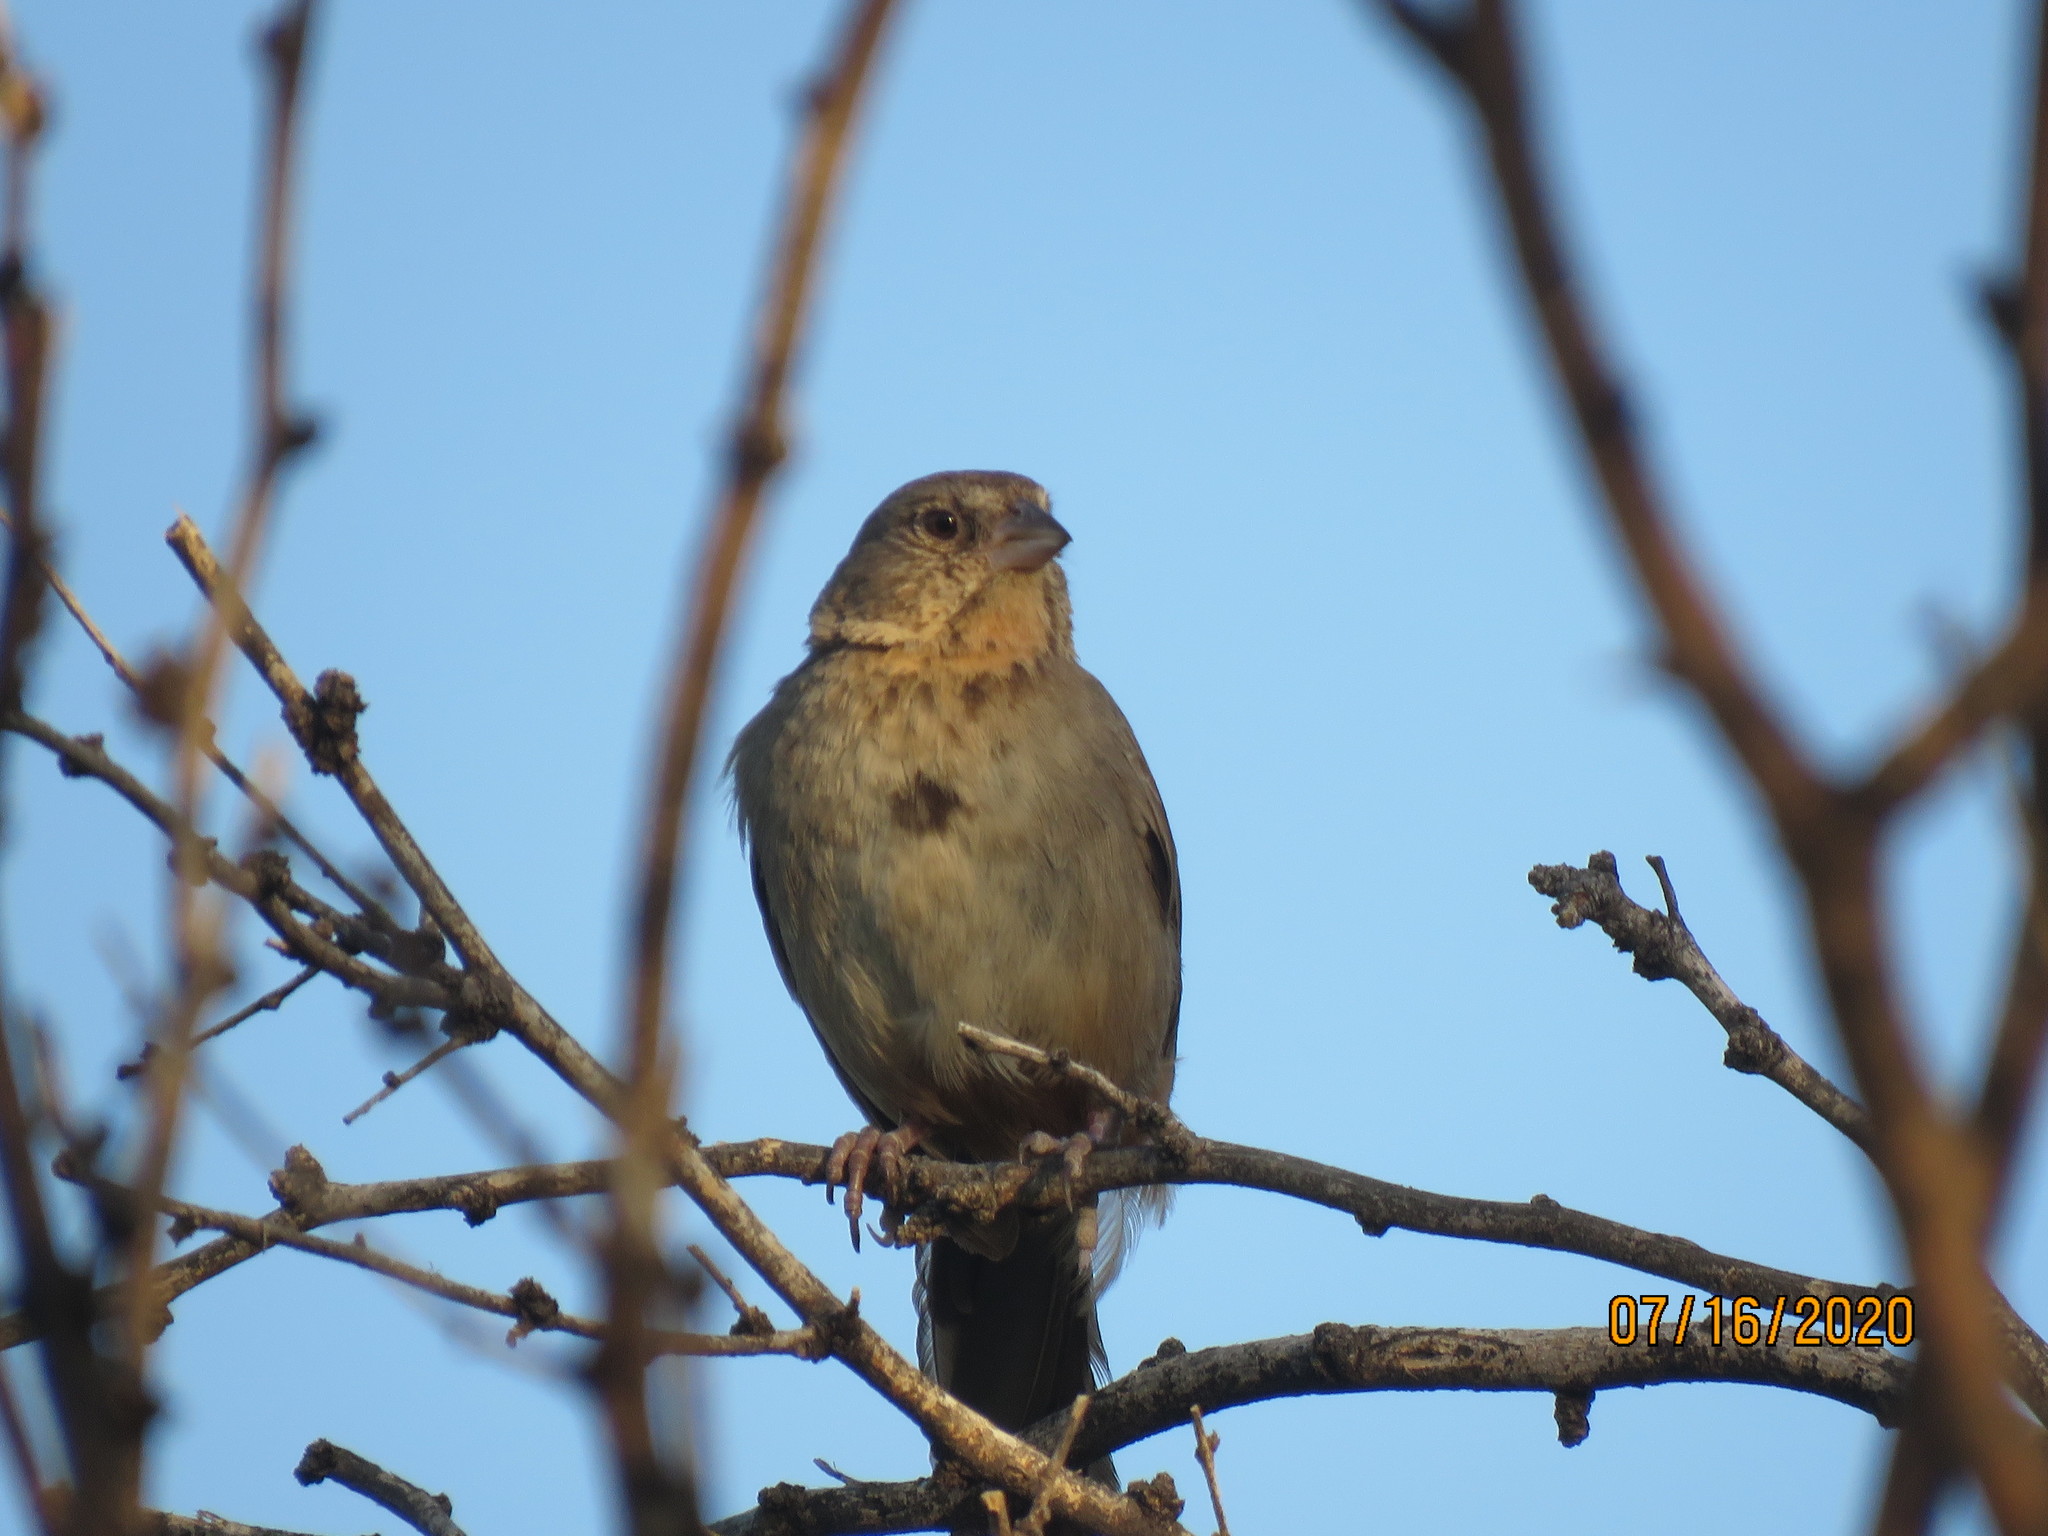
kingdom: Animalia
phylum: Chordata
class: Aves
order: Passeriformes
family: Passerellidae
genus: Melozone
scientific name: Melozone fusca
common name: Canyon towhee
